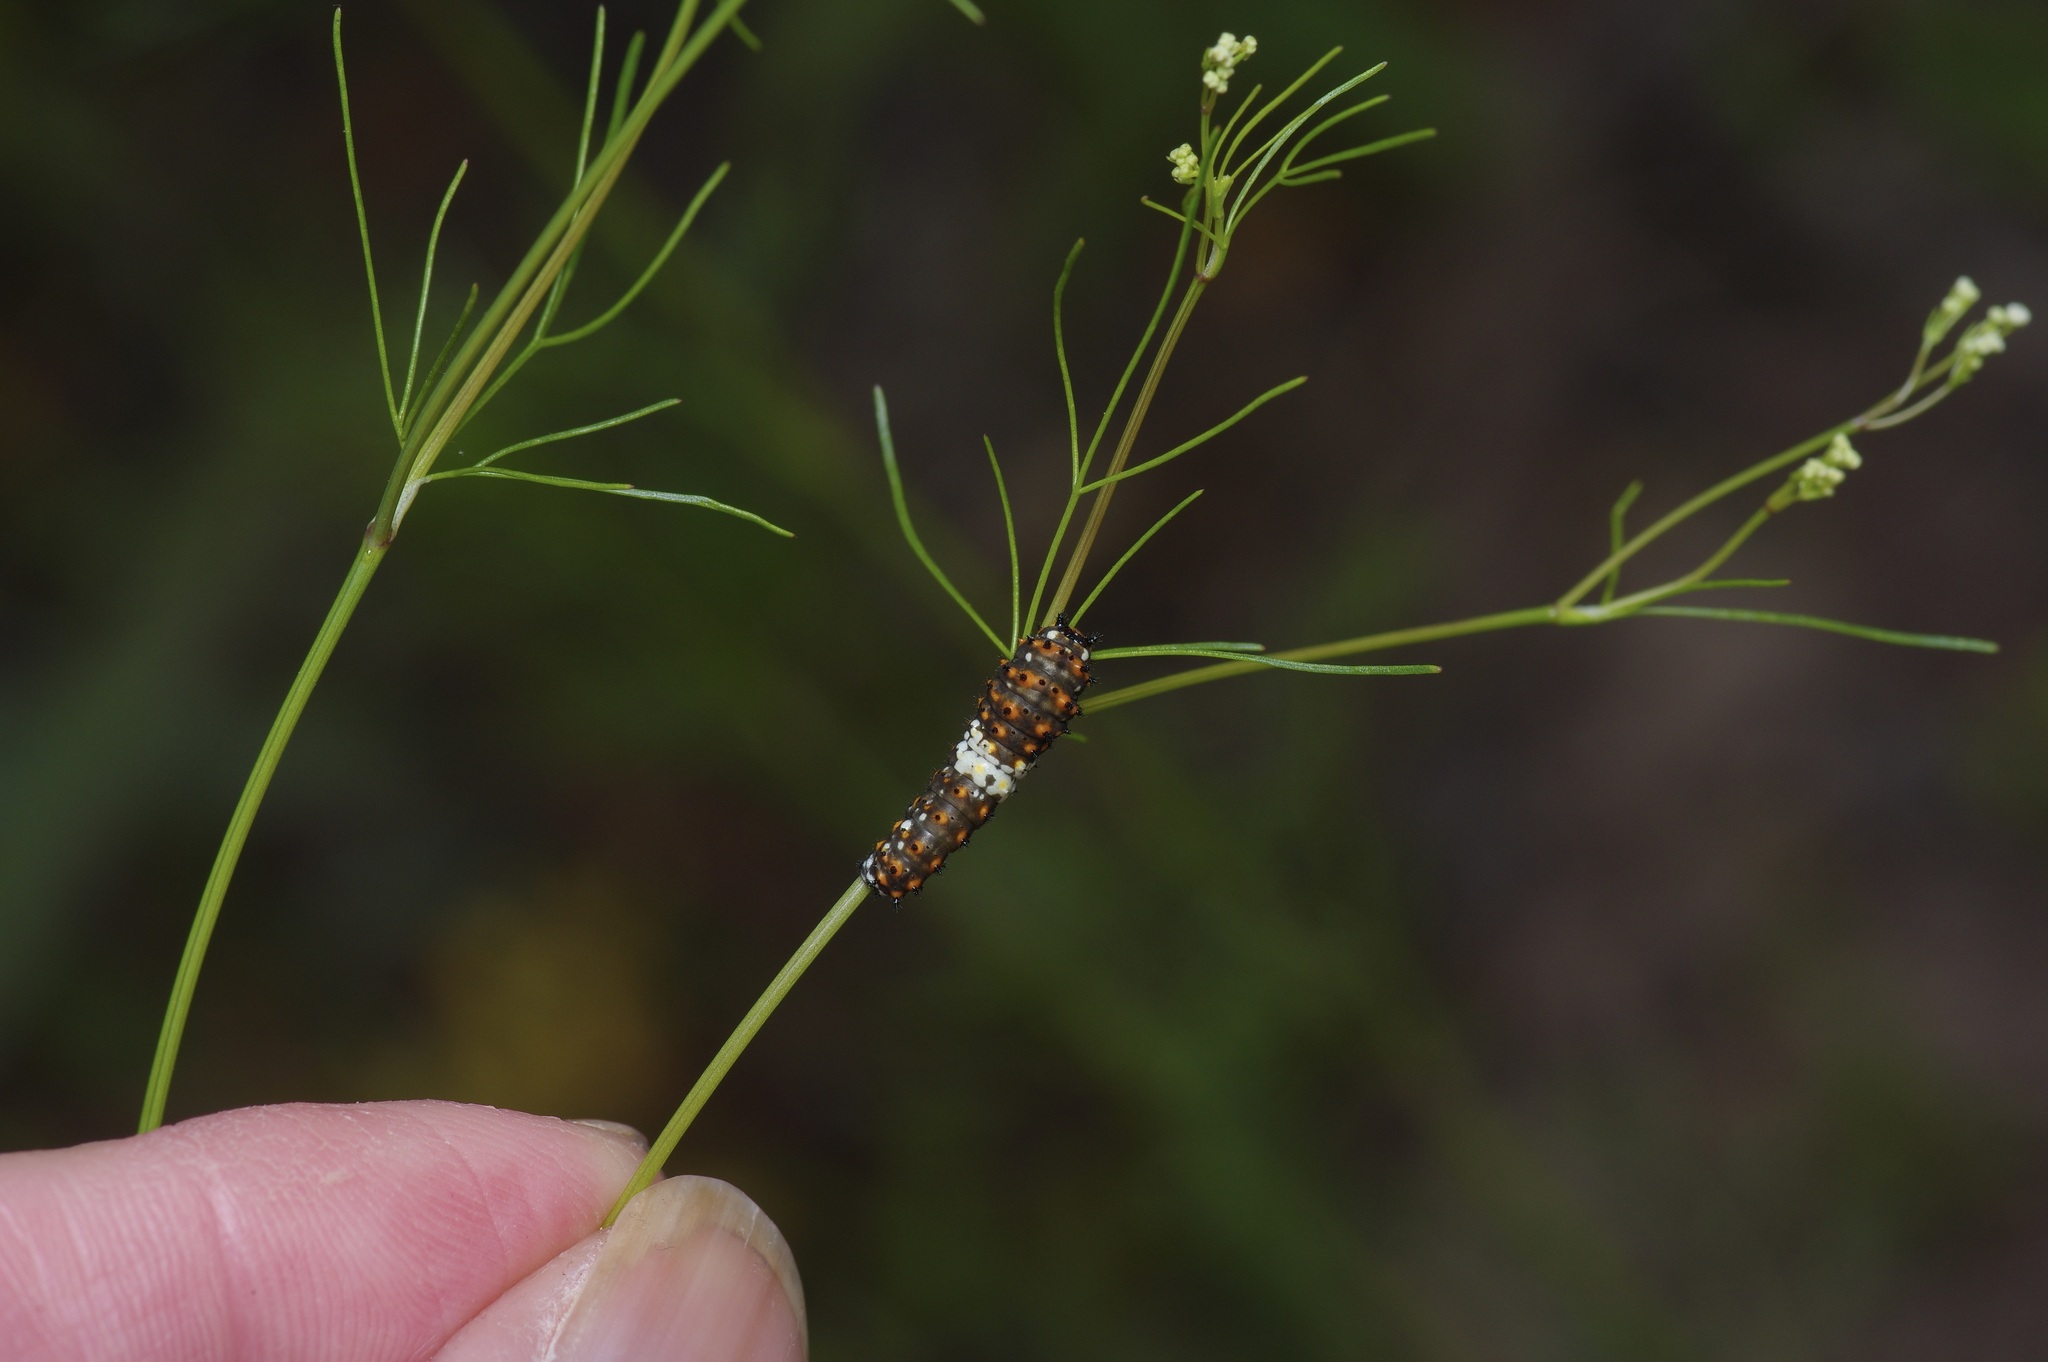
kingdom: Animalia
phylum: Arthropoda
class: Insecta
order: Lepidoptera
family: Papilionidae
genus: Papilio
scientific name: Papilio polyxenes
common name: Black swallowtail
